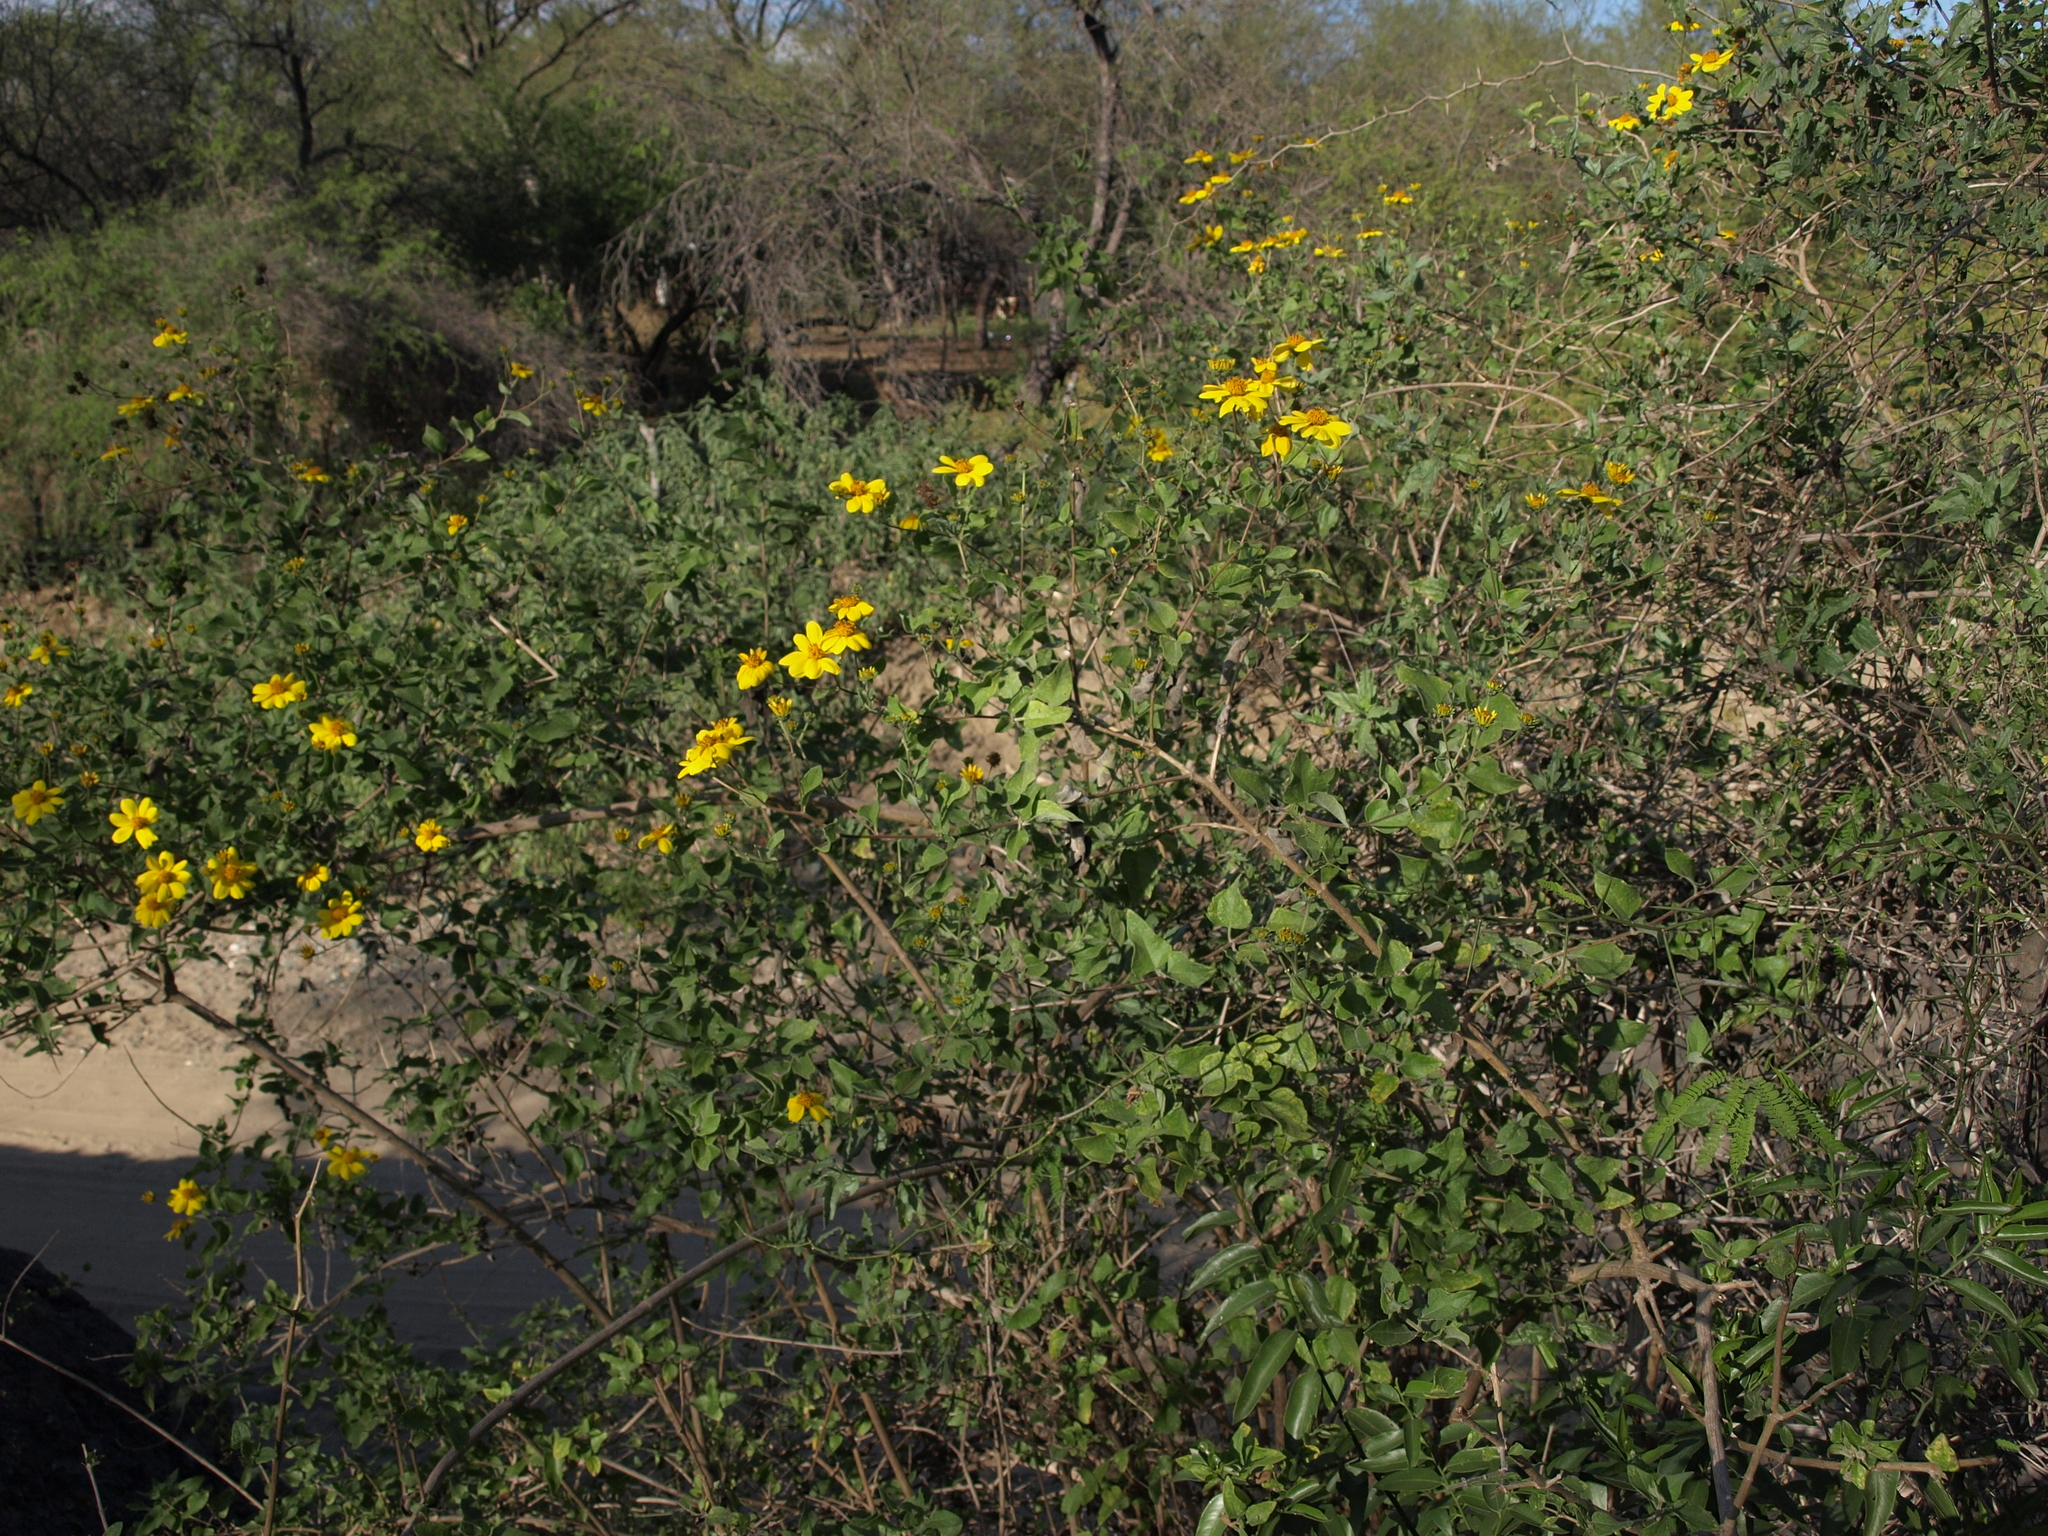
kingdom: Plantae
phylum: Tracheophyta
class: Magnoliopsida
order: Asterales
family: Asteraceae
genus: Bahiopsis
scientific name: Bahiopsis deltoidea
